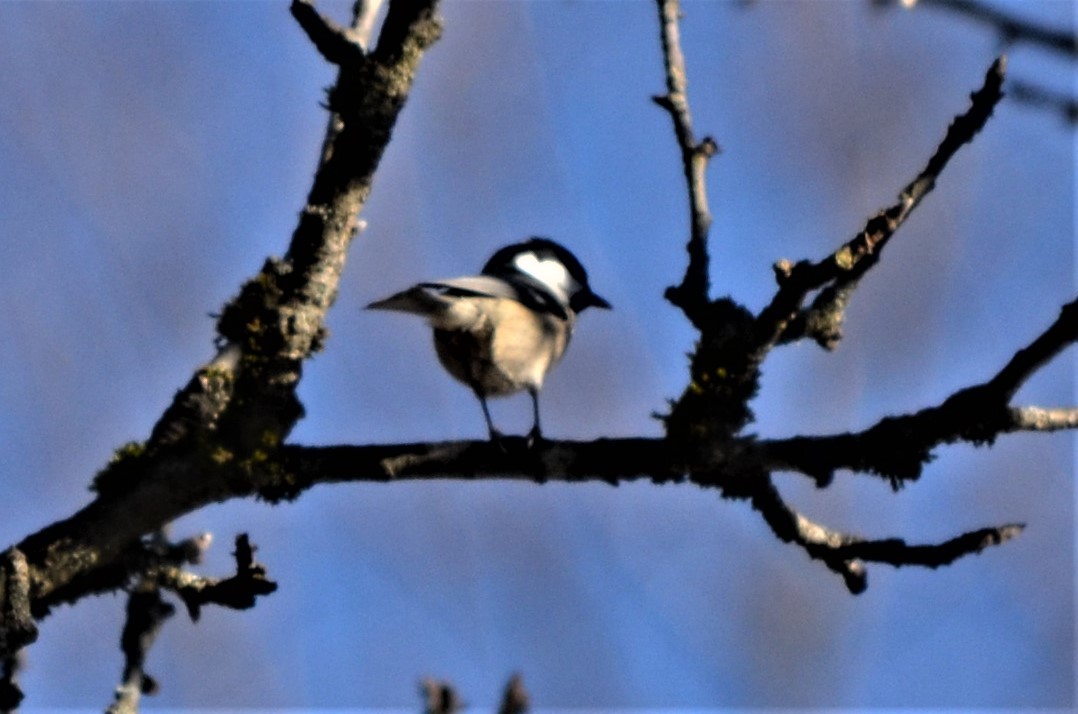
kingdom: Animalia
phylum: Chordata
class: Aves
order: Passeriformes
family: Paridae
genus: Periparus
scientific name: Periparus ater
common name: Coal tit
